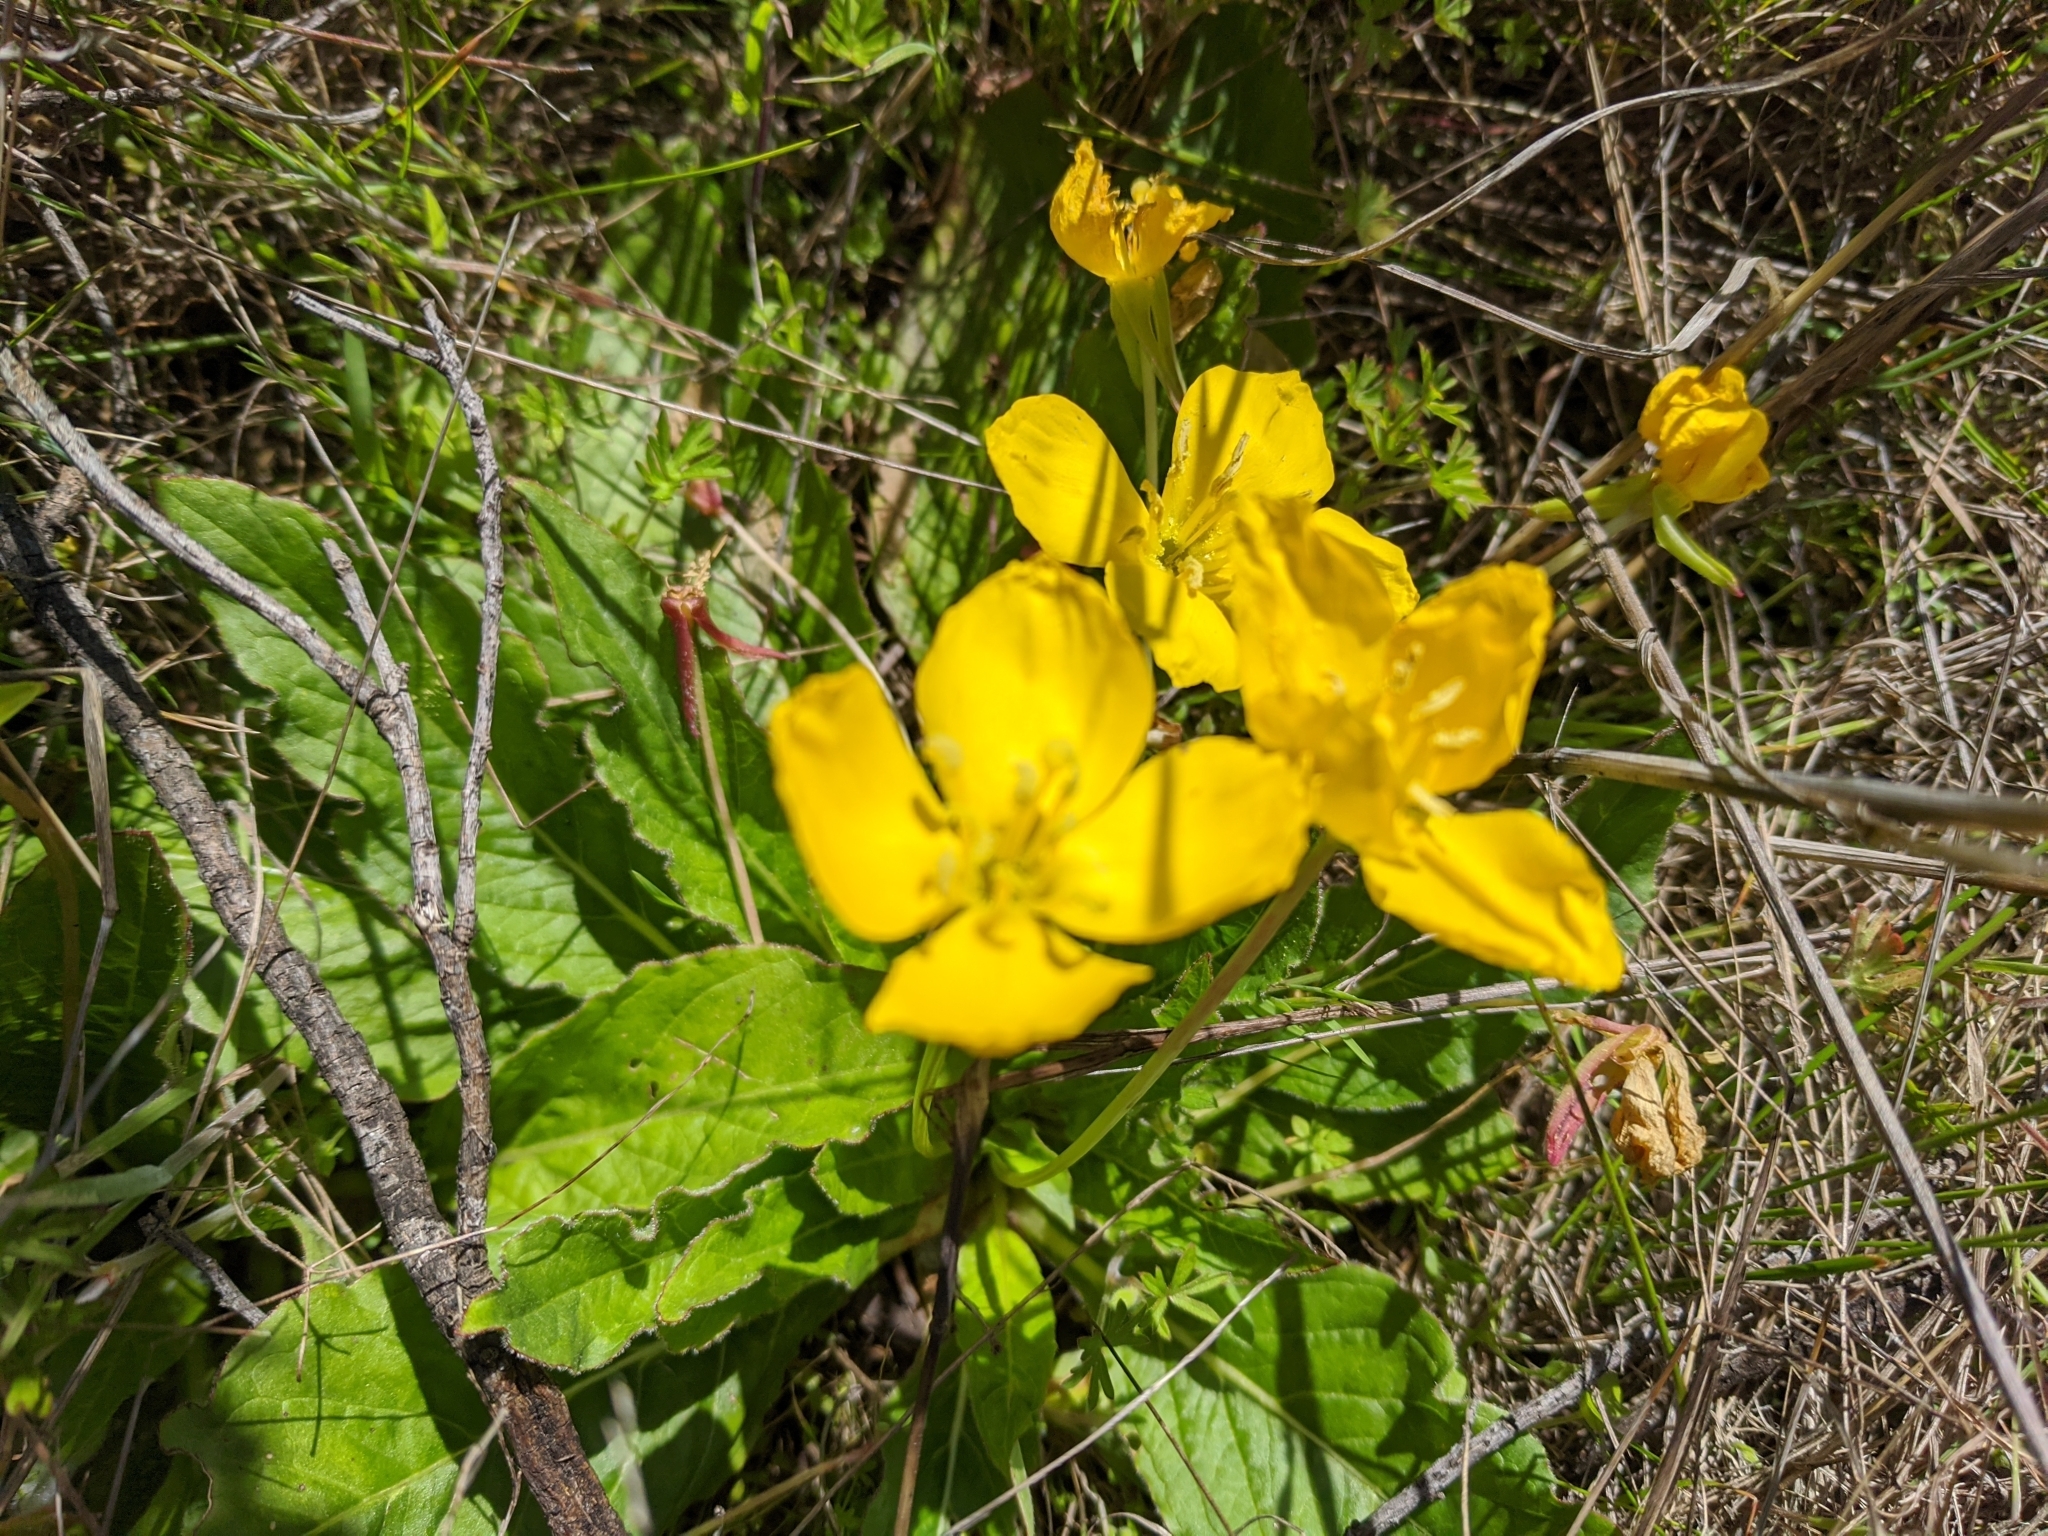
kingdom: Plantae
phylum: Tracheophyta
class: Magnoliopsida
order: Myrtales
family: Onagraceae
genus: Taraxia
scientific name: Taraxia ovata
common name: Goldeneggs
